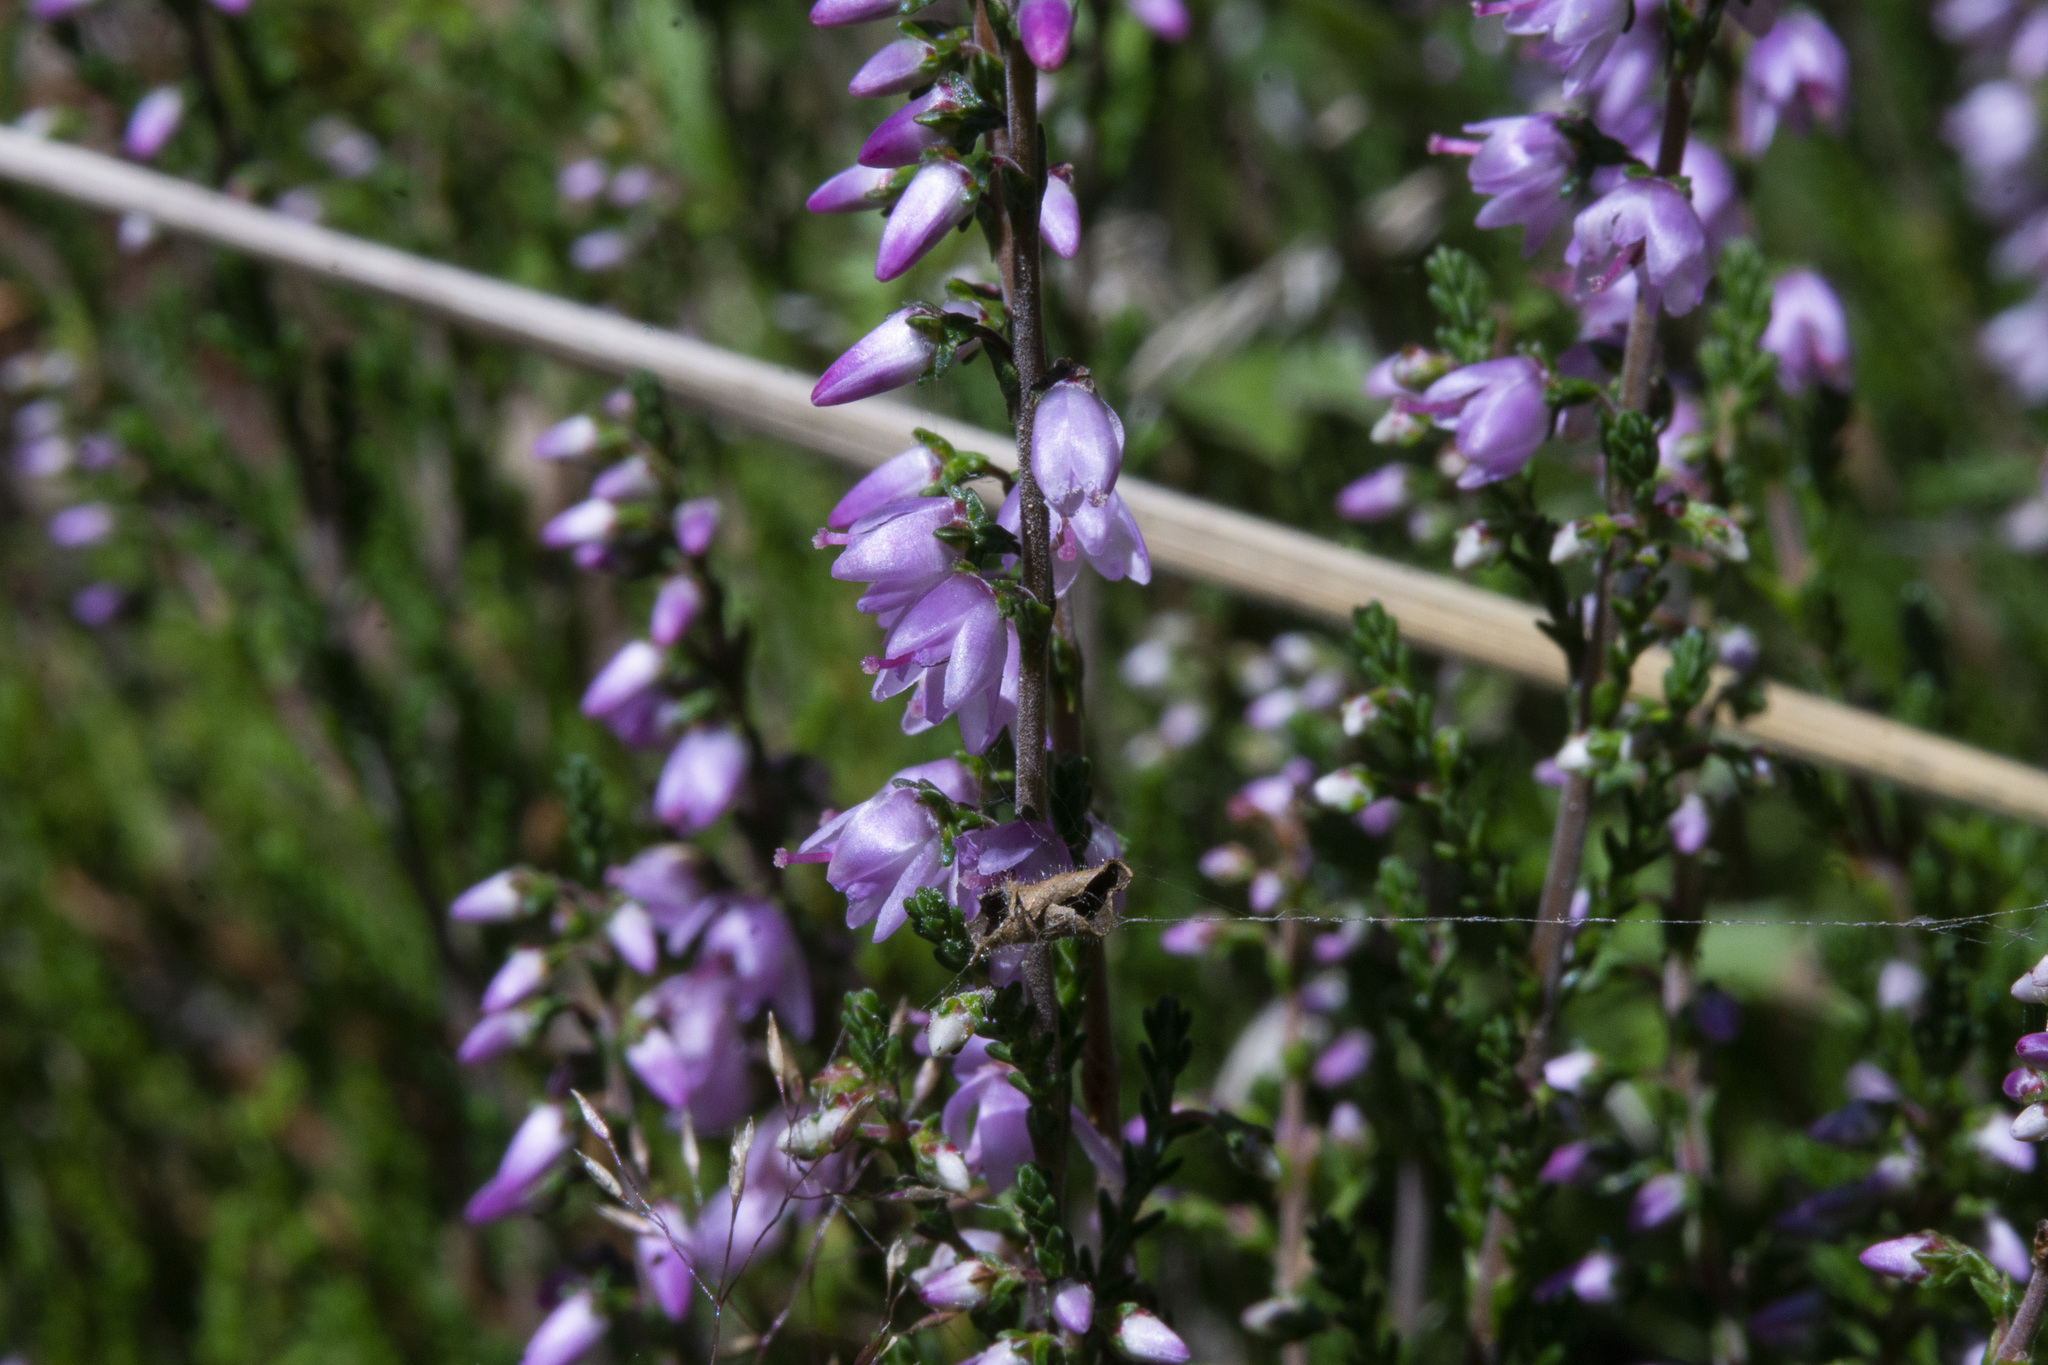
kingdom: Plantae
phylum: Tracheophyta
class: Magnoliopsida
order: Ericales
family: Ericaceae
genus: Calluna
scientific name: Calluna vulgaris
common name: Heather
